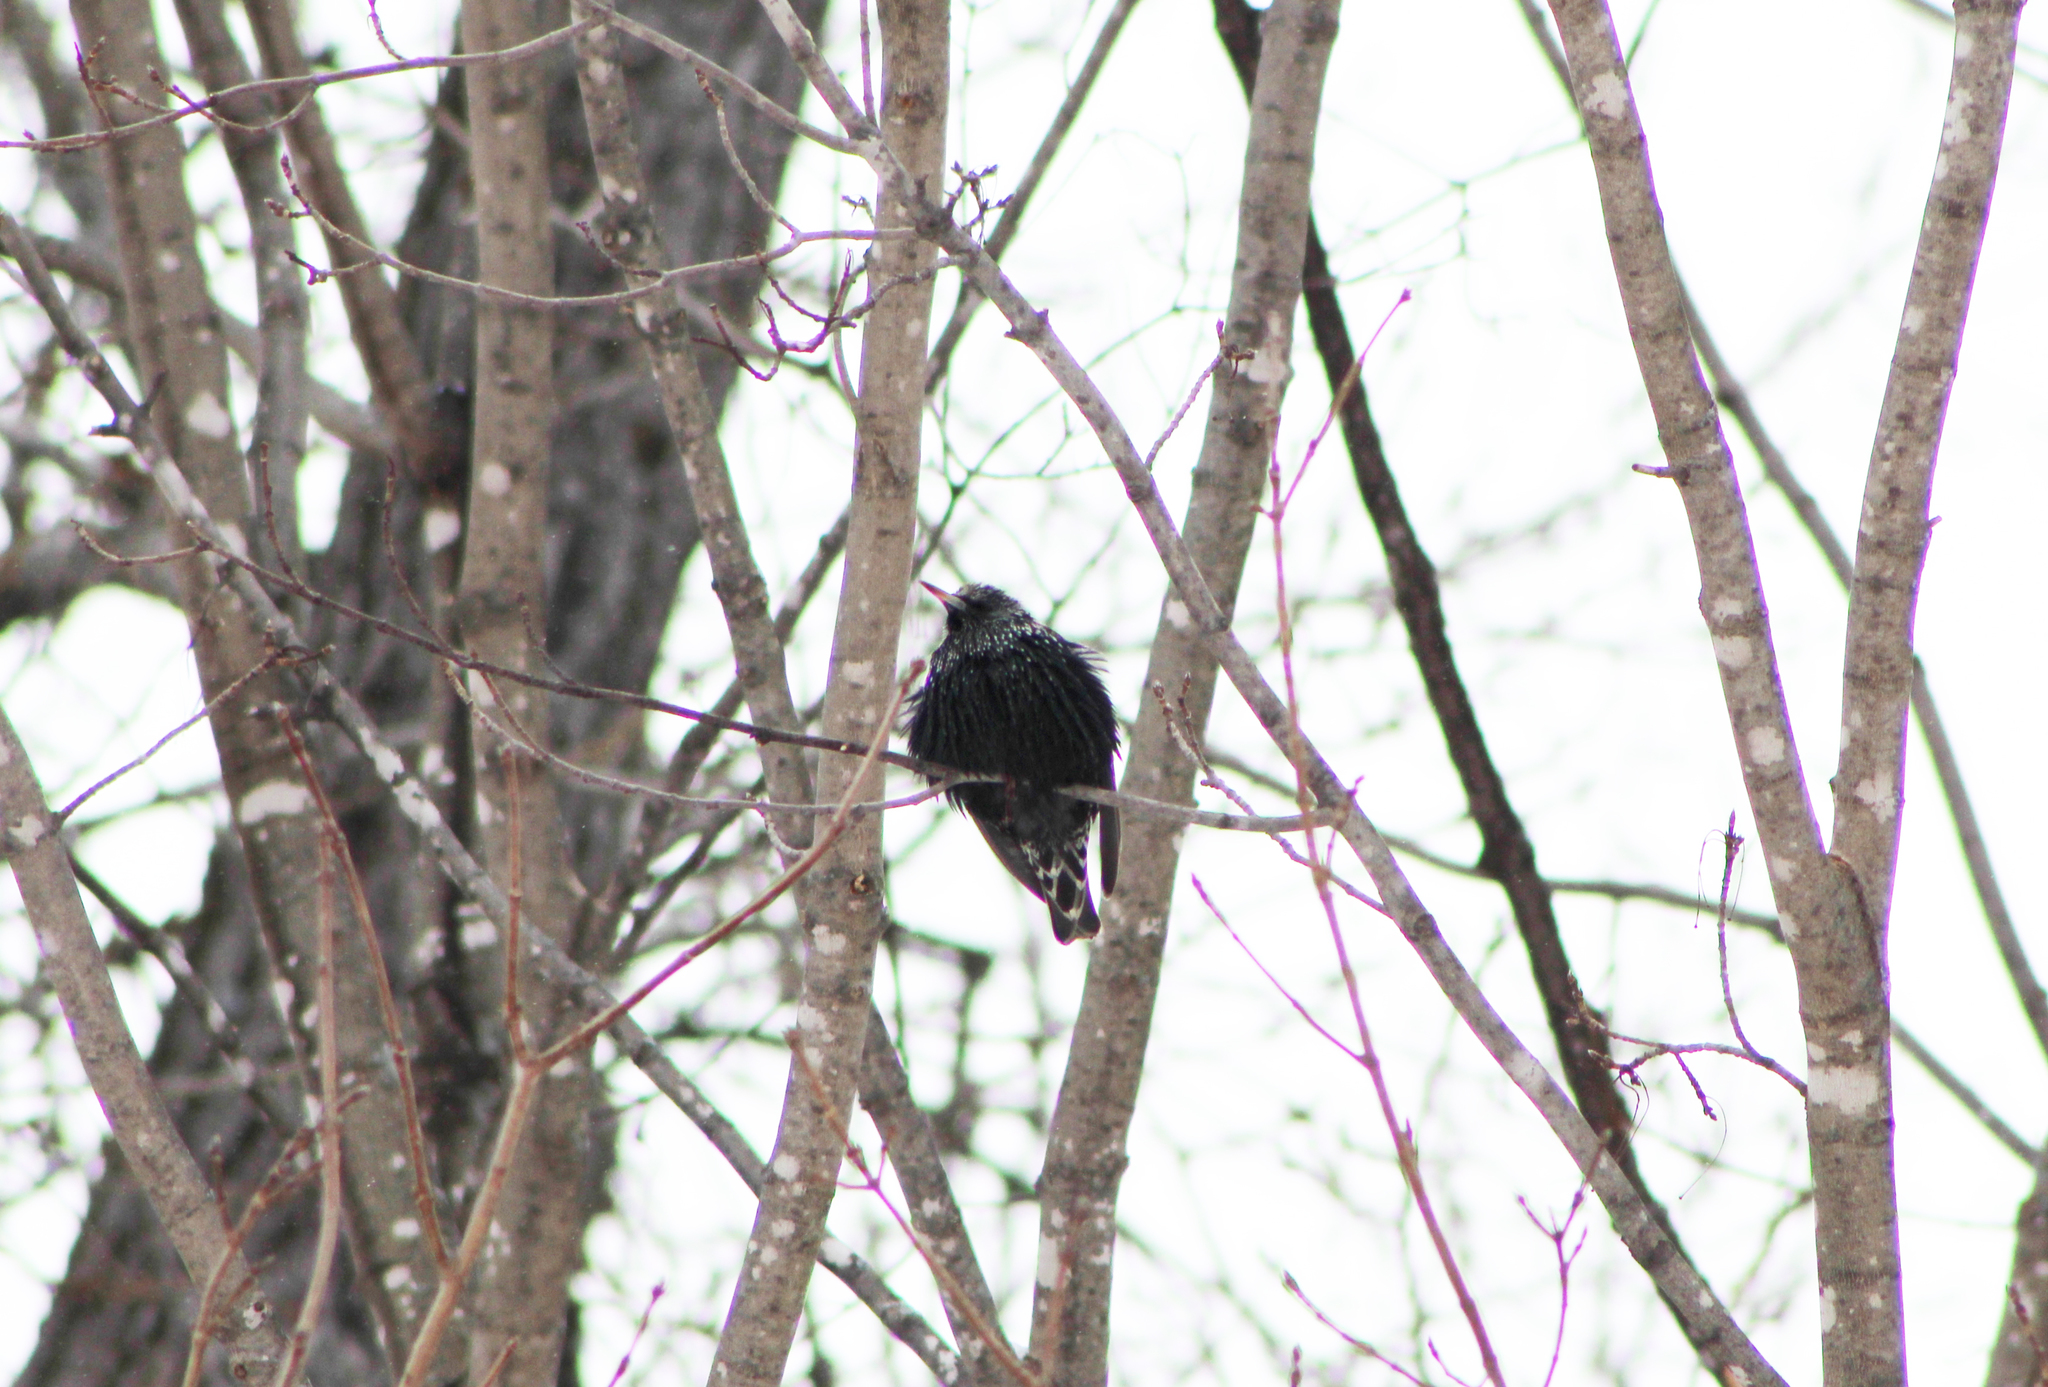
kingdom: Animalia
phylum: Chordata
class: Aves
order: Passeriformes
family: Sturnidae
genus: Sturnus
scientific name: Sturnus vulgaris
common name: Common starling
